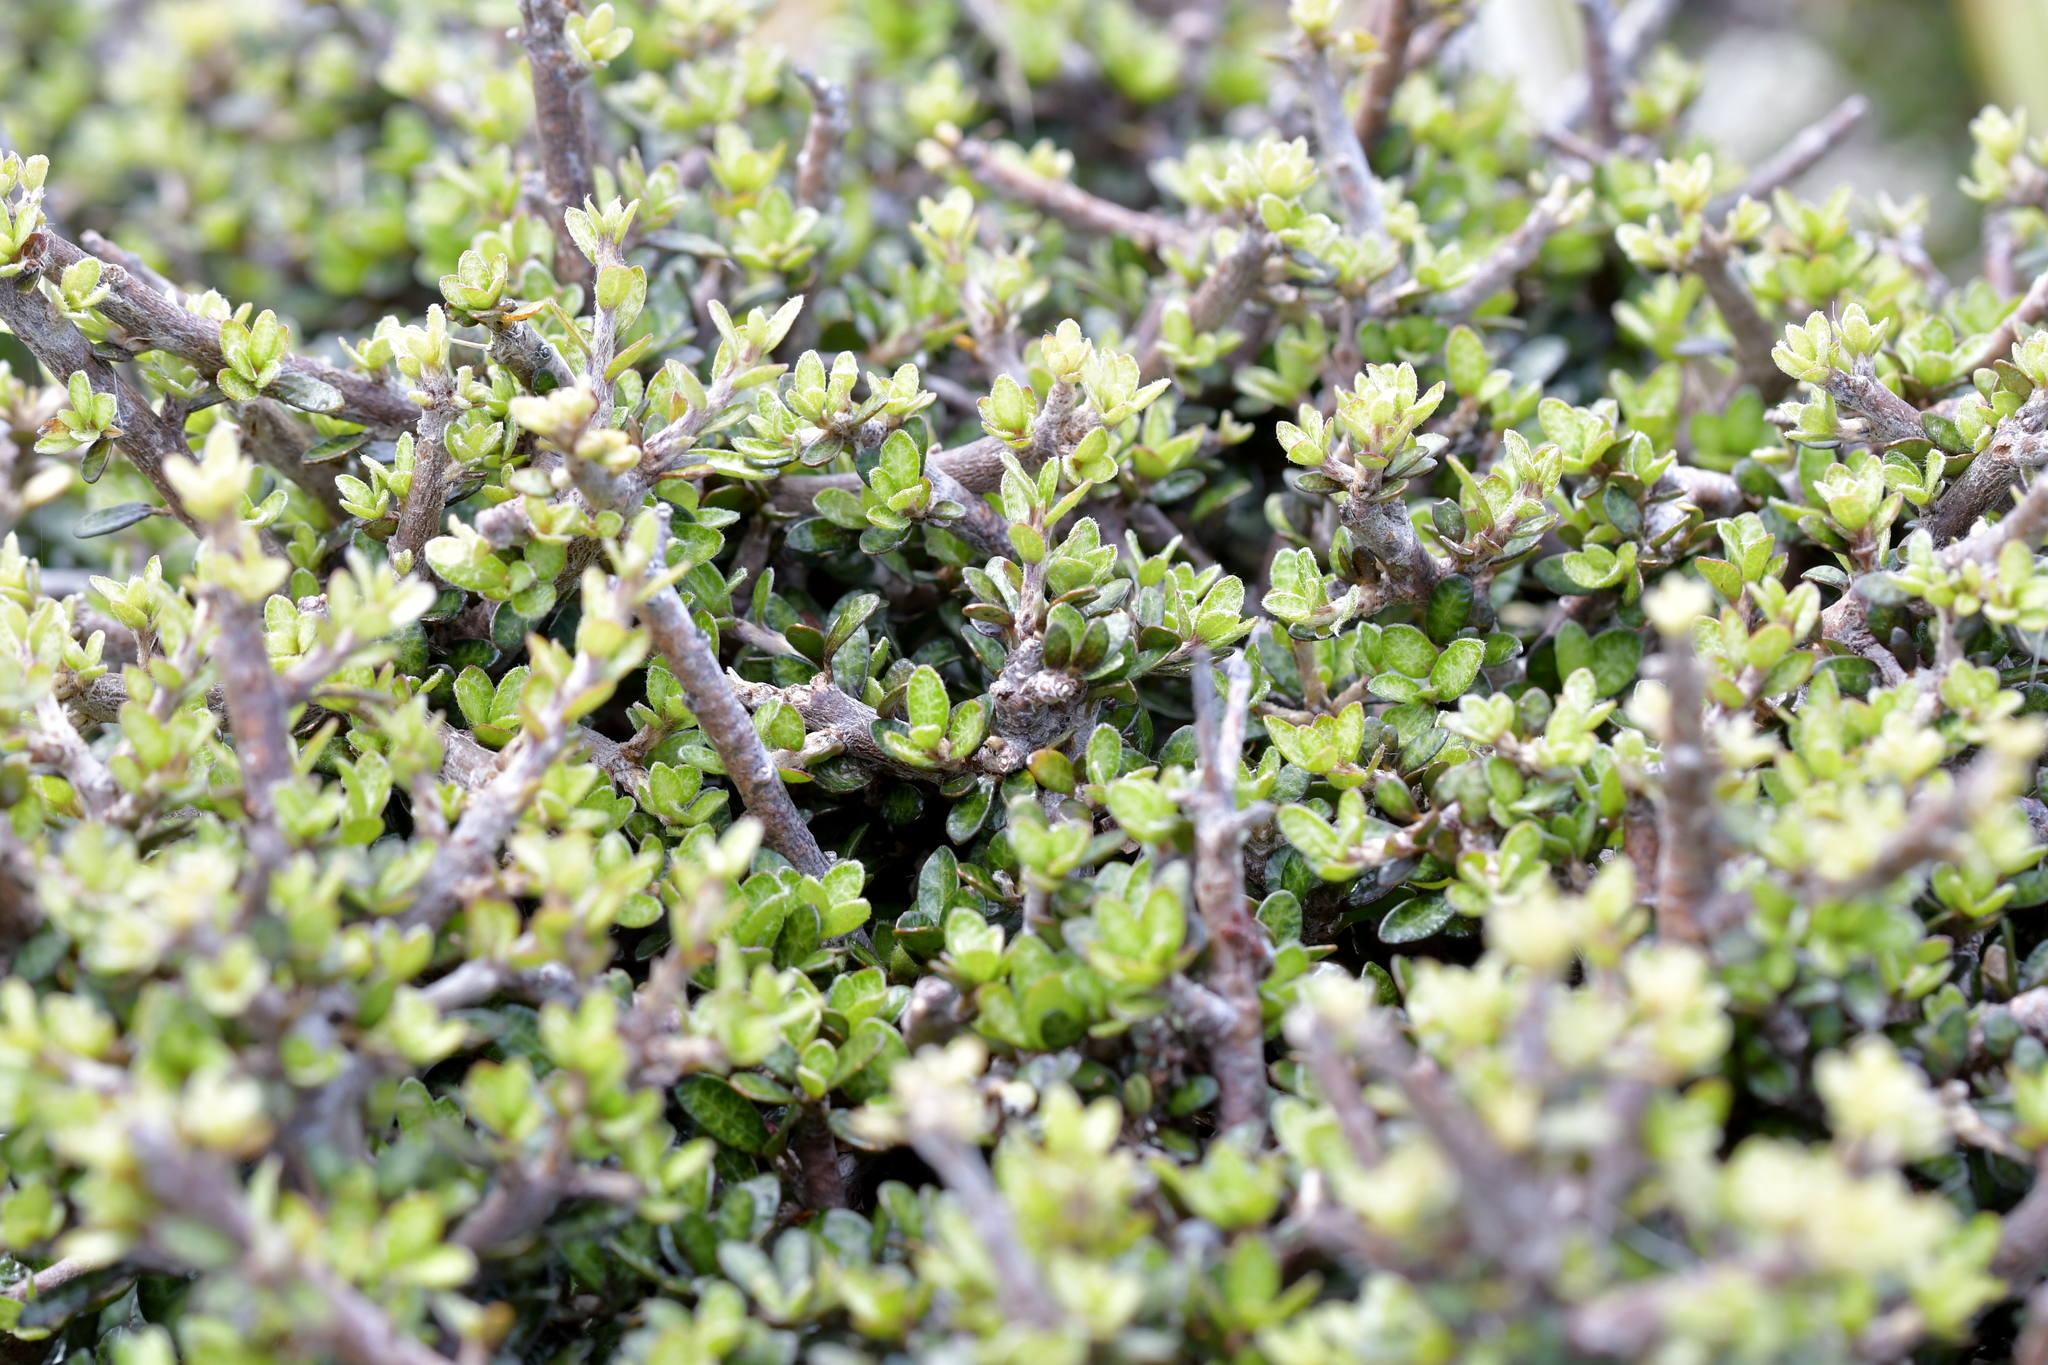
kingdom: Plantae
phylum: Tracheophyta
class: Magnoliopsida
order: Gentianales
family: Rubiaceae
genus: Coprosma
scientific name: Coprosma dumosa
